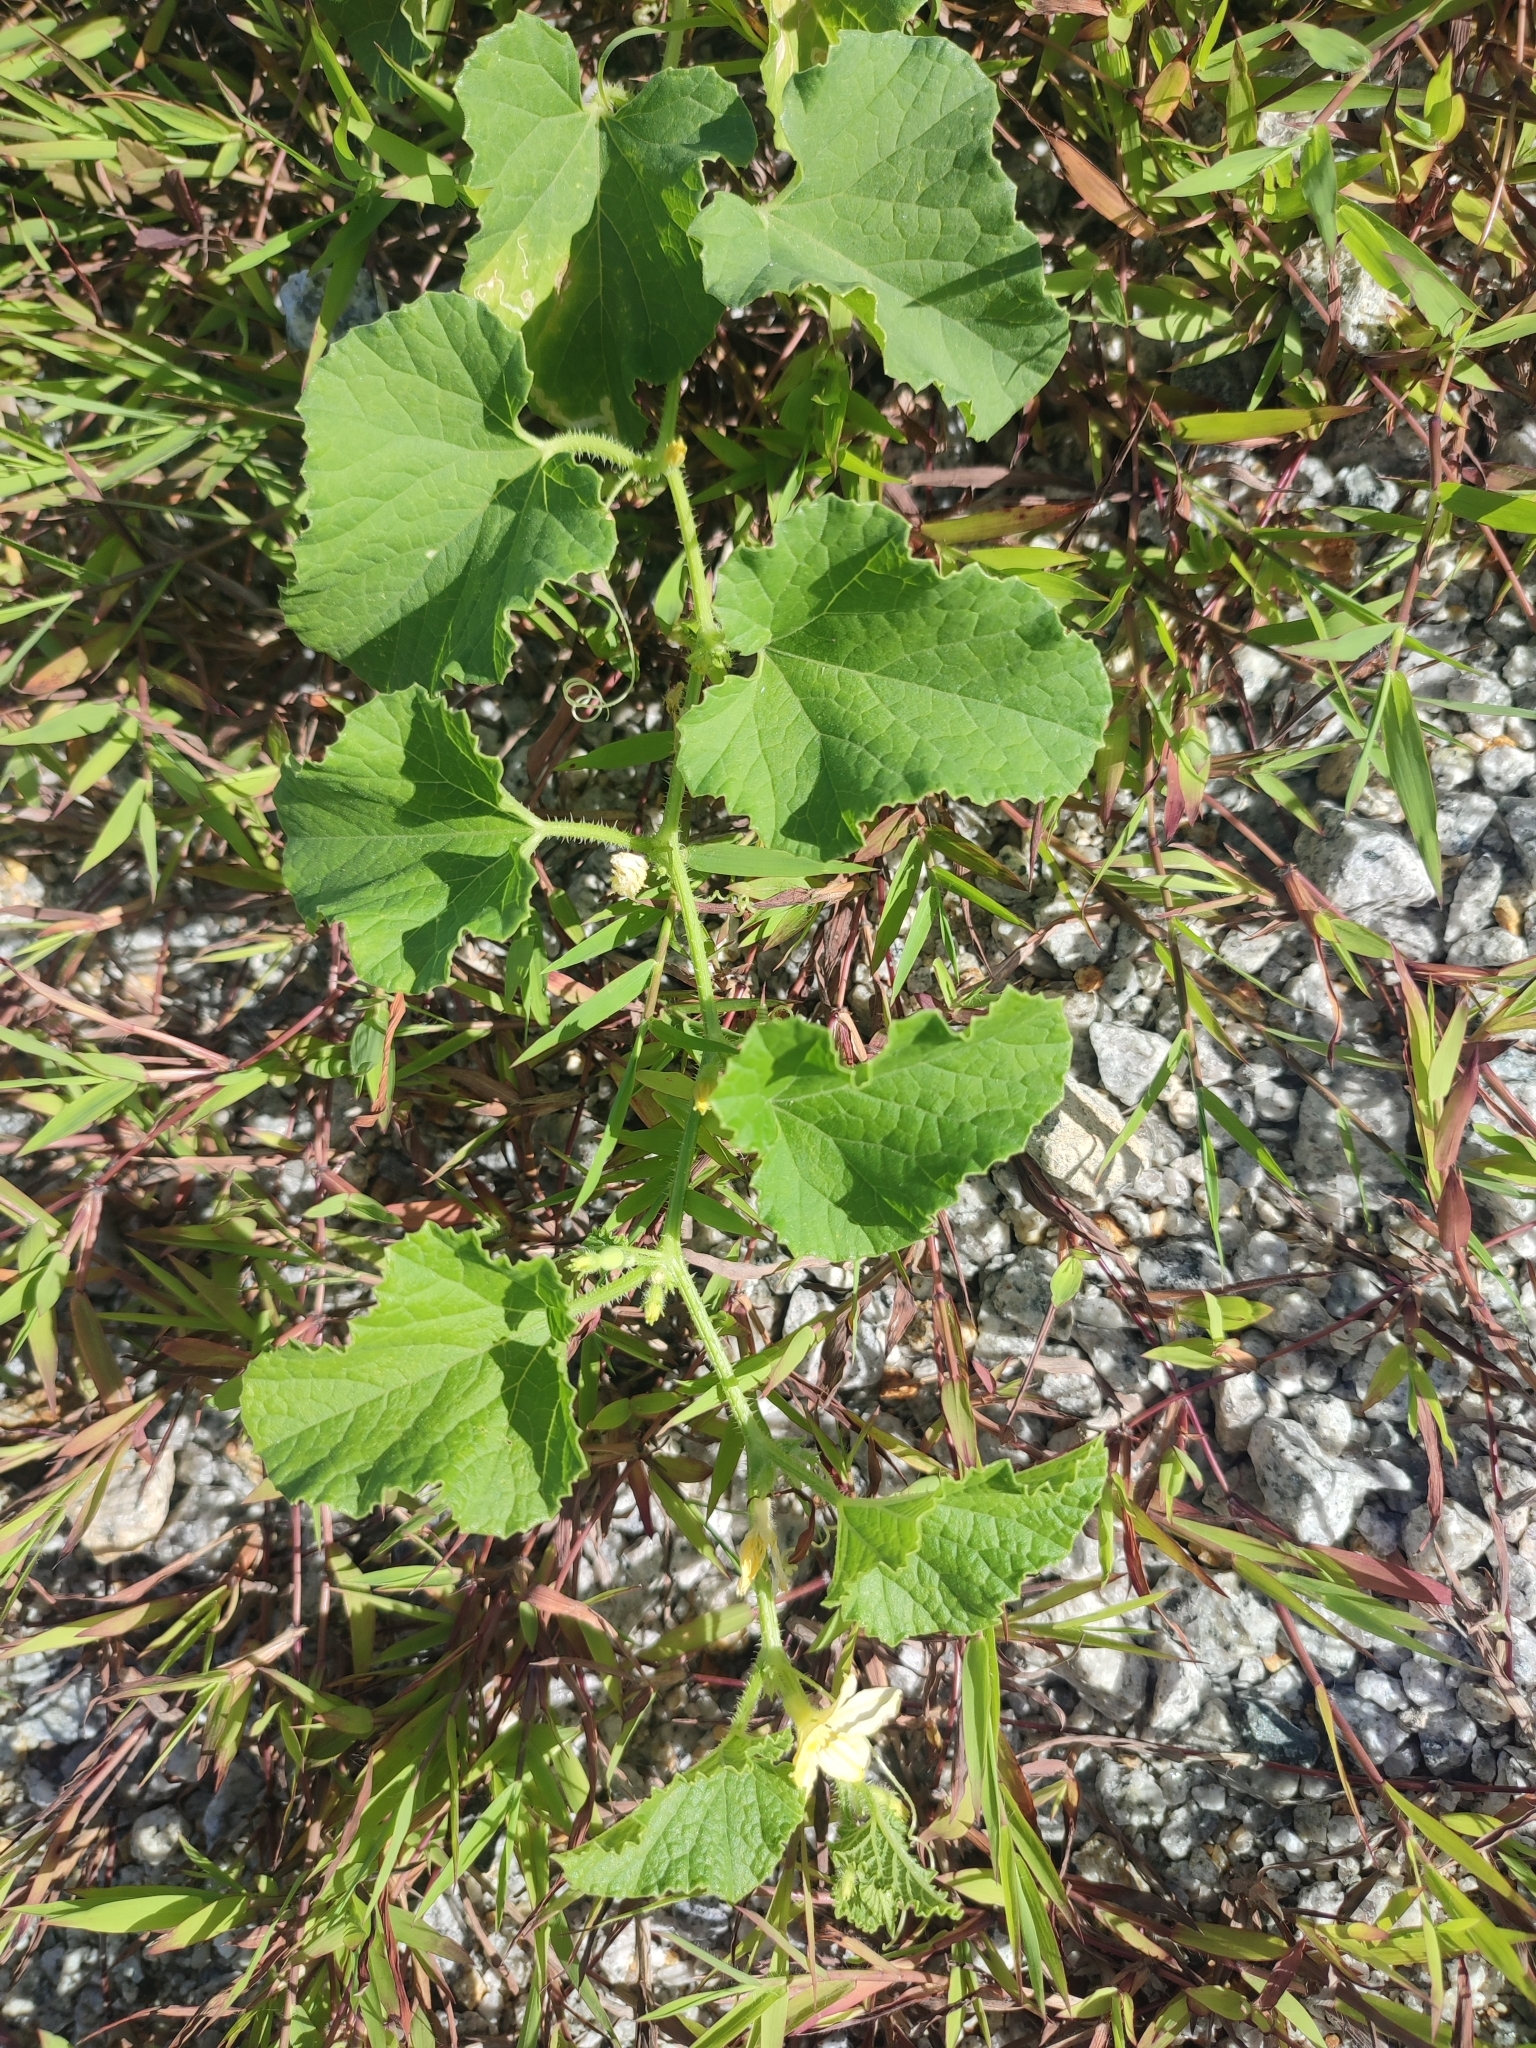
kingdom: Plantae
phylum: Tracheophyta
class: Magnoliopsida
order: Cucurbitales
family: Cucurbitaceae
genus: Cucumis
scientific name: Cucumis melo
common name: Melon
